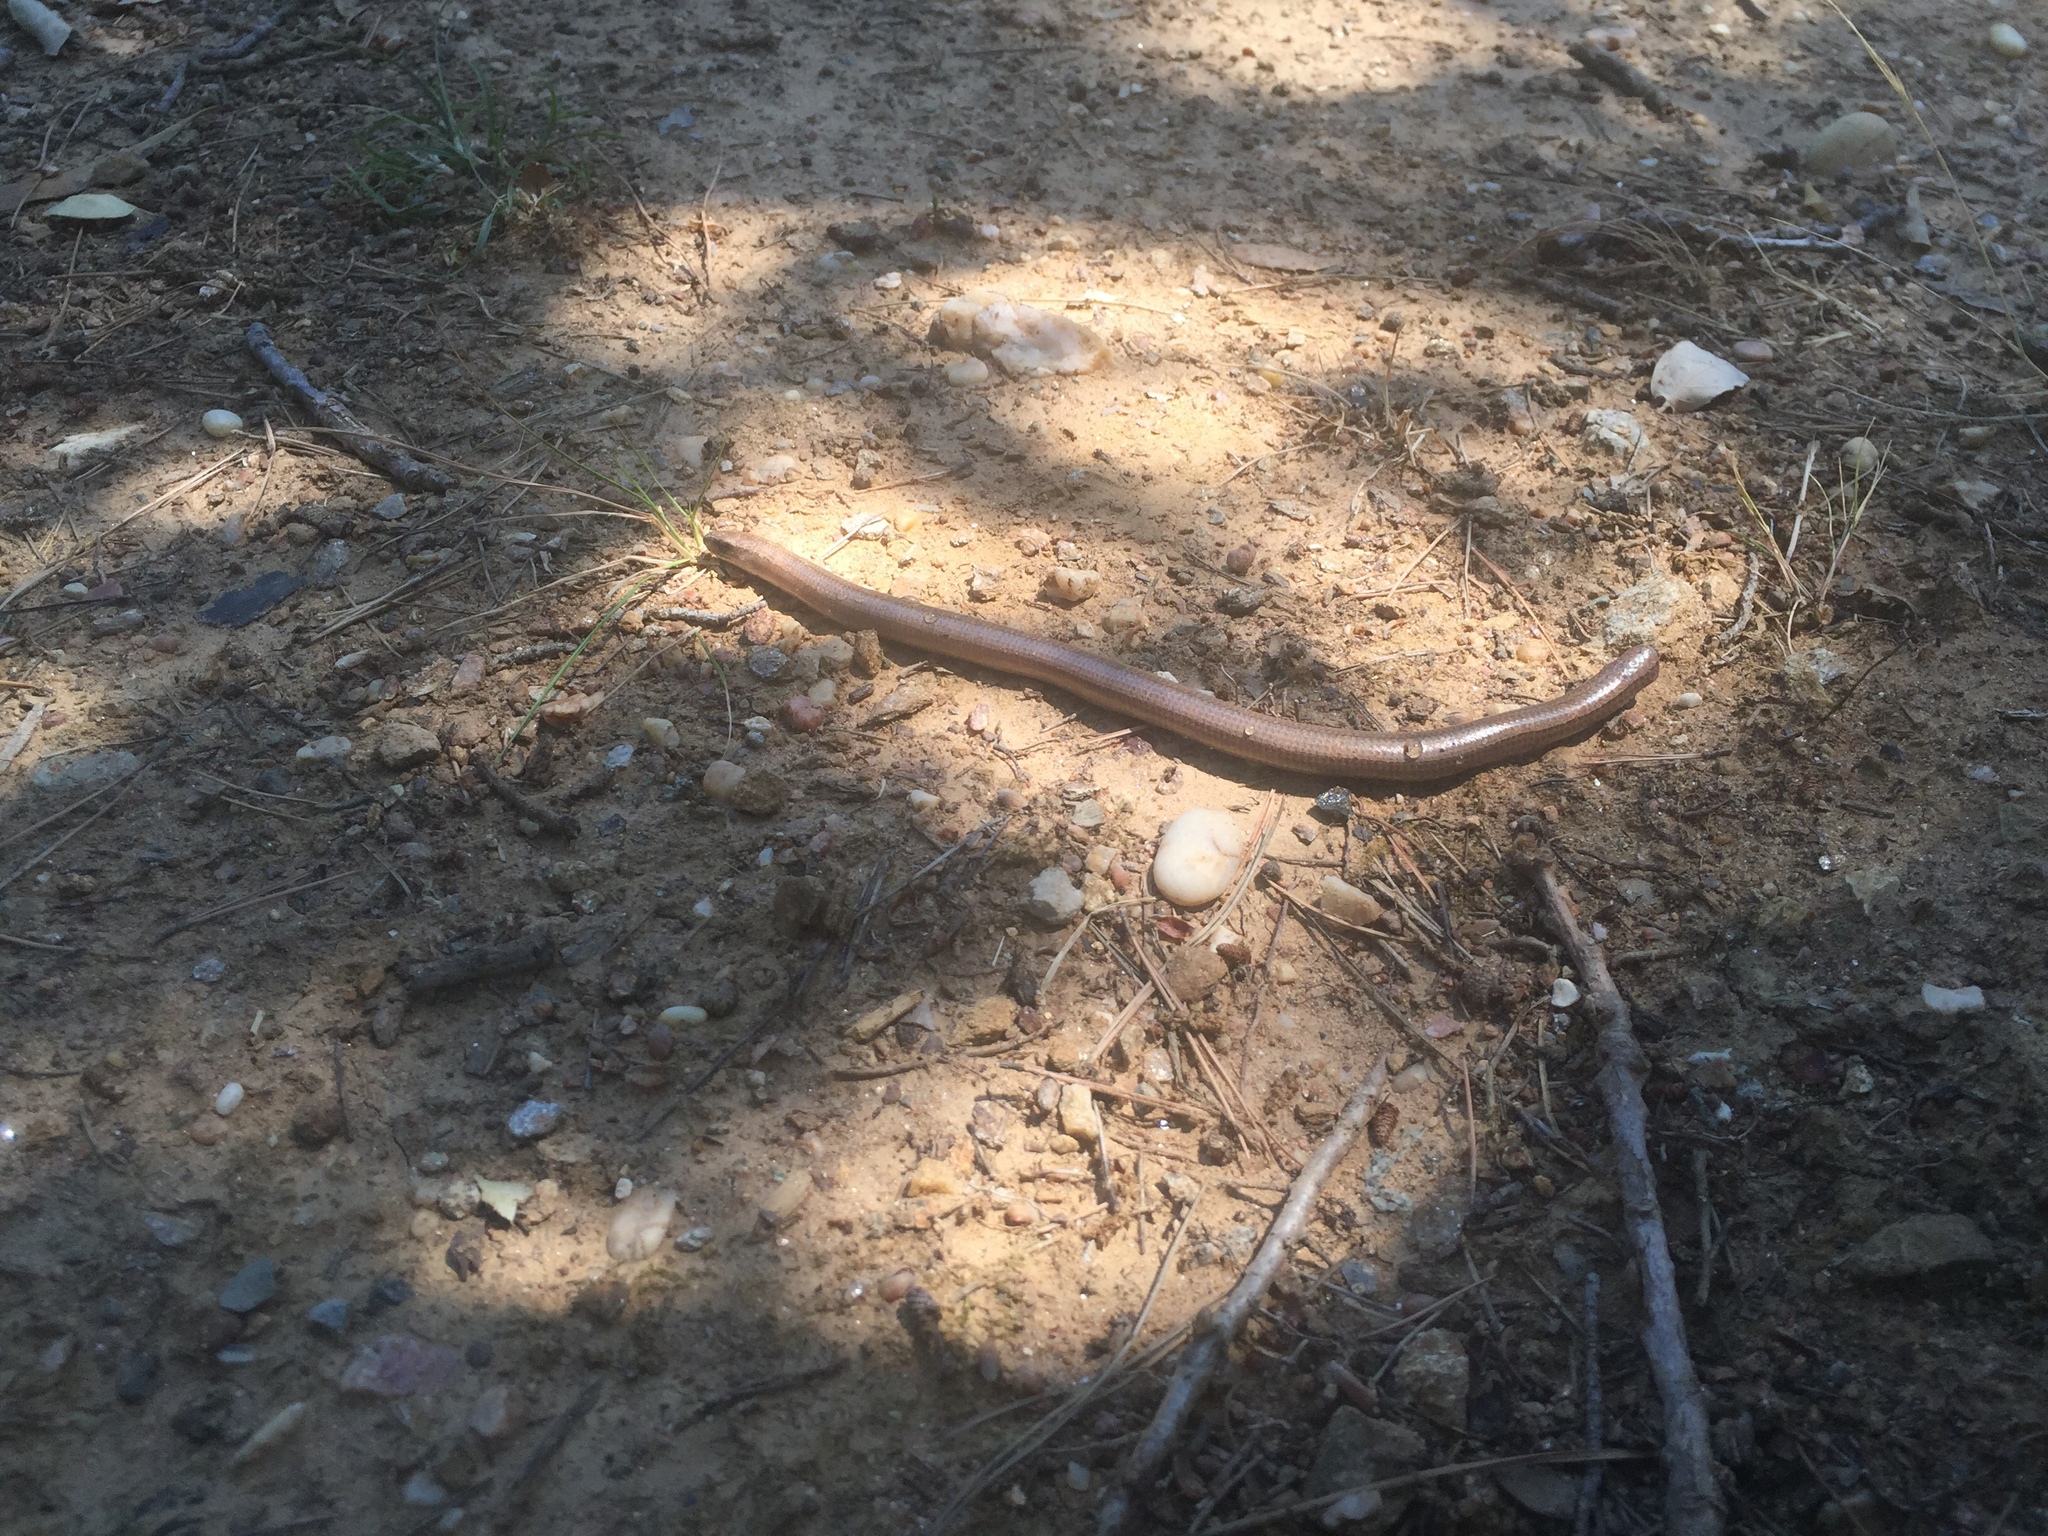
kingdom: Animalia
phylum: Chordata
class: Squamata
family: Anguidae
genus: Anguis
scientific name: Anguis veronensis
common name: Italian slow worm
